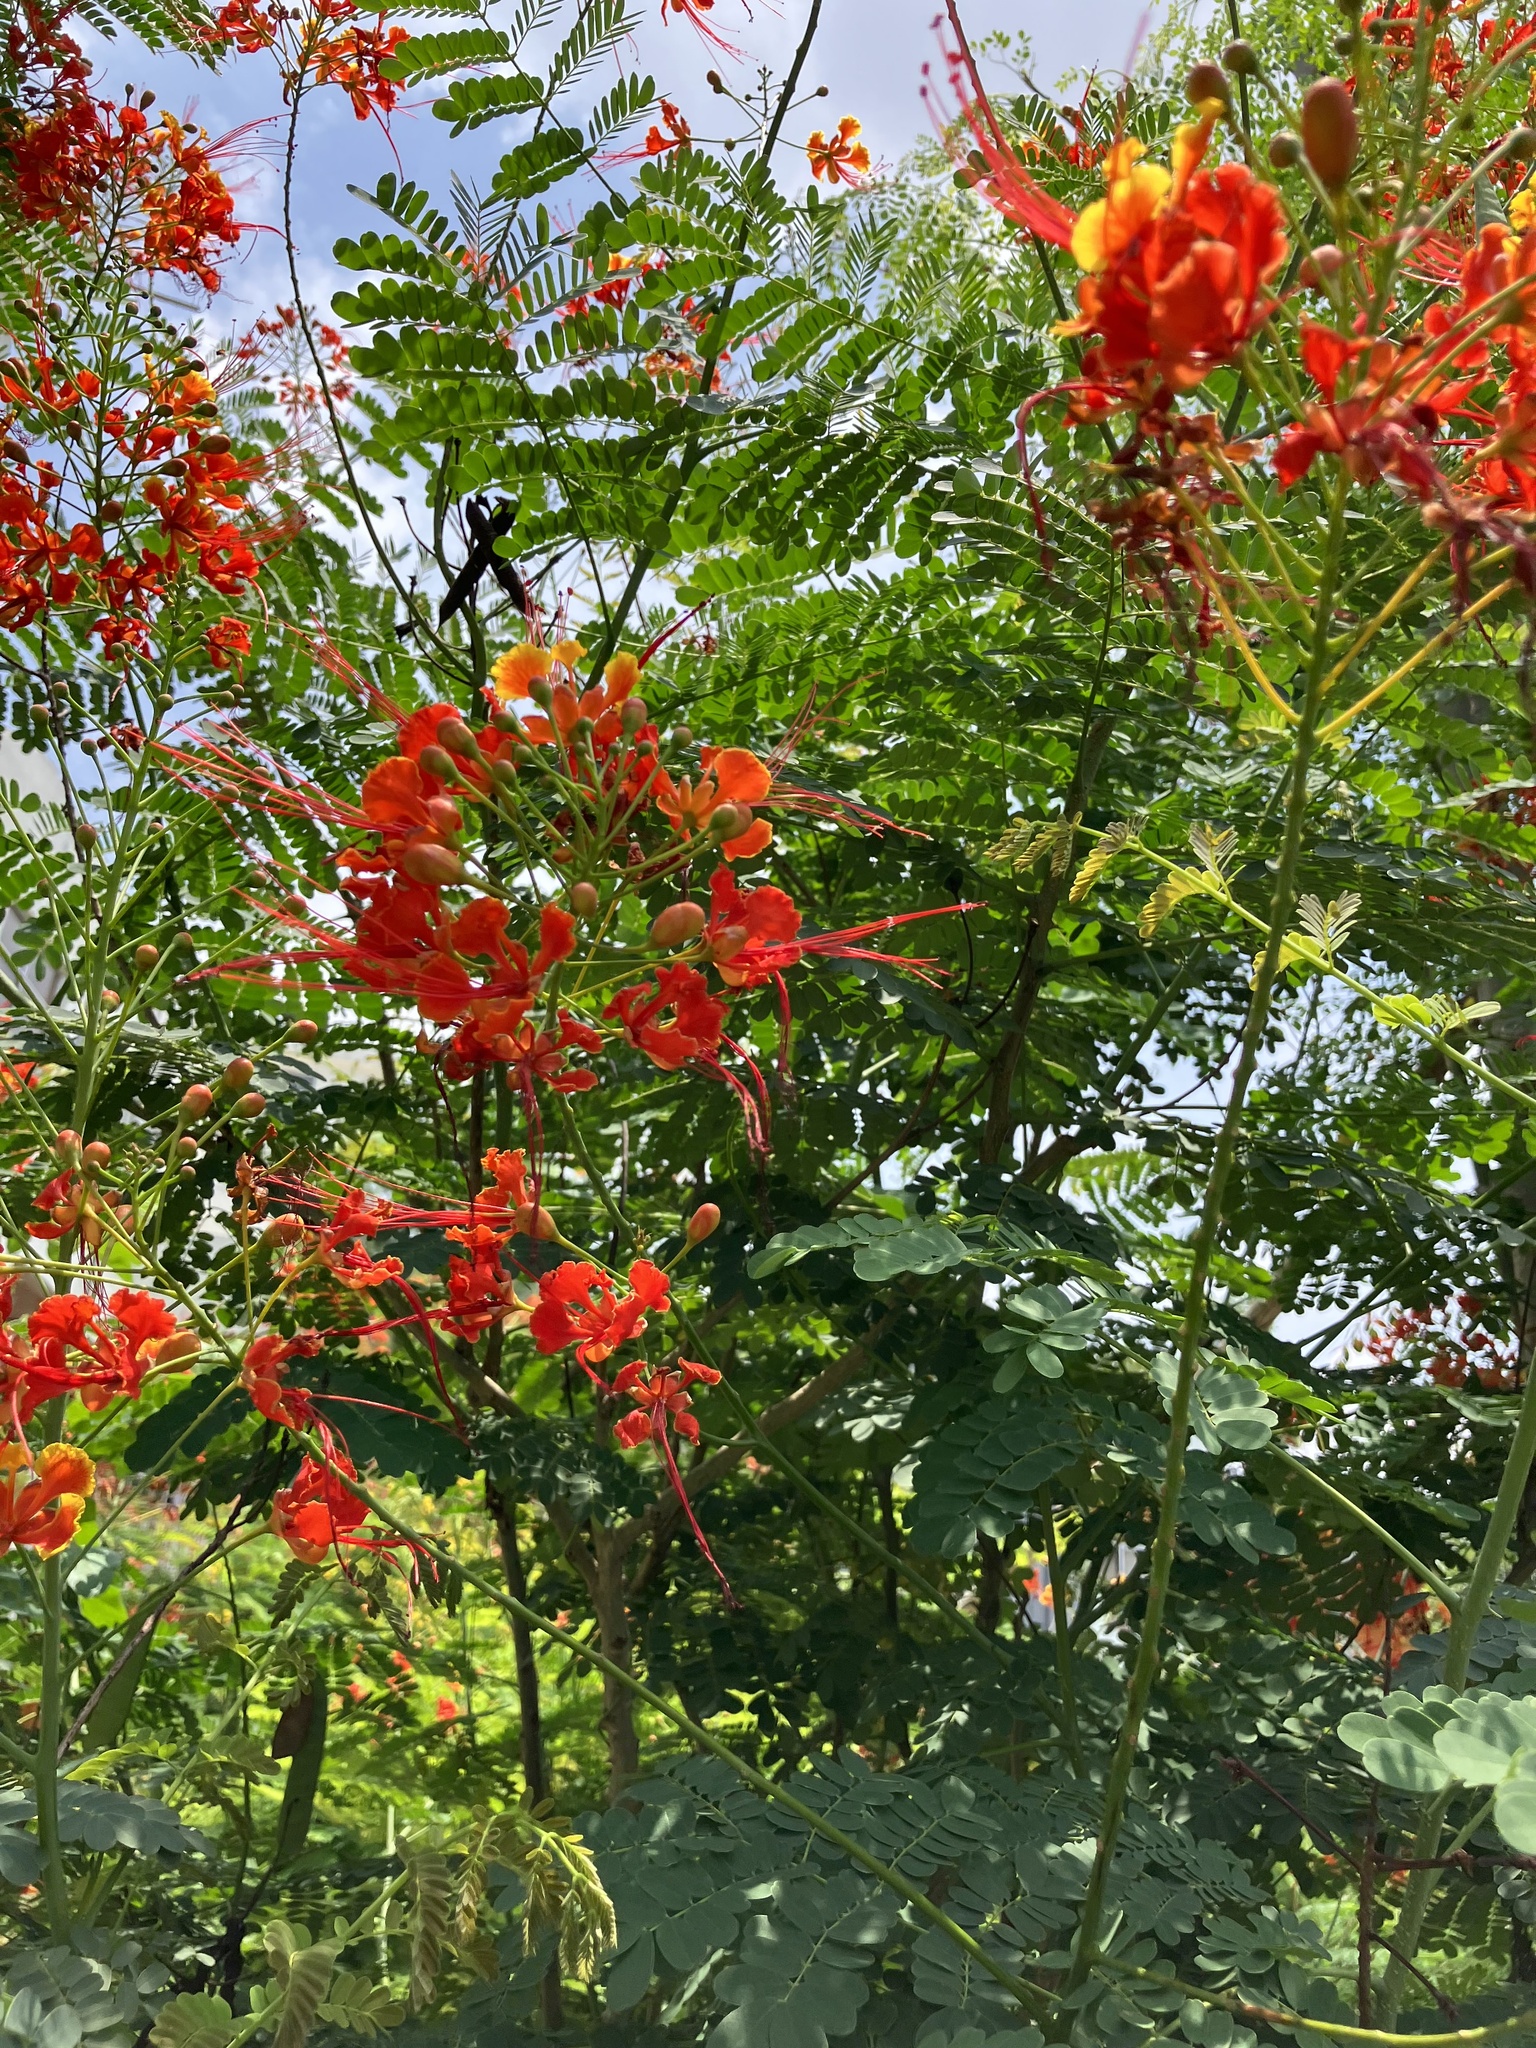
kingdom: Plantae
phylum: Tracheophyta
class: Magnoliopsida
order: Fabales
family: Fabaceae
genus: Caesalpinia
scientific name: Caesalpinia pulcherrima
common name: Pride-of-barbados
